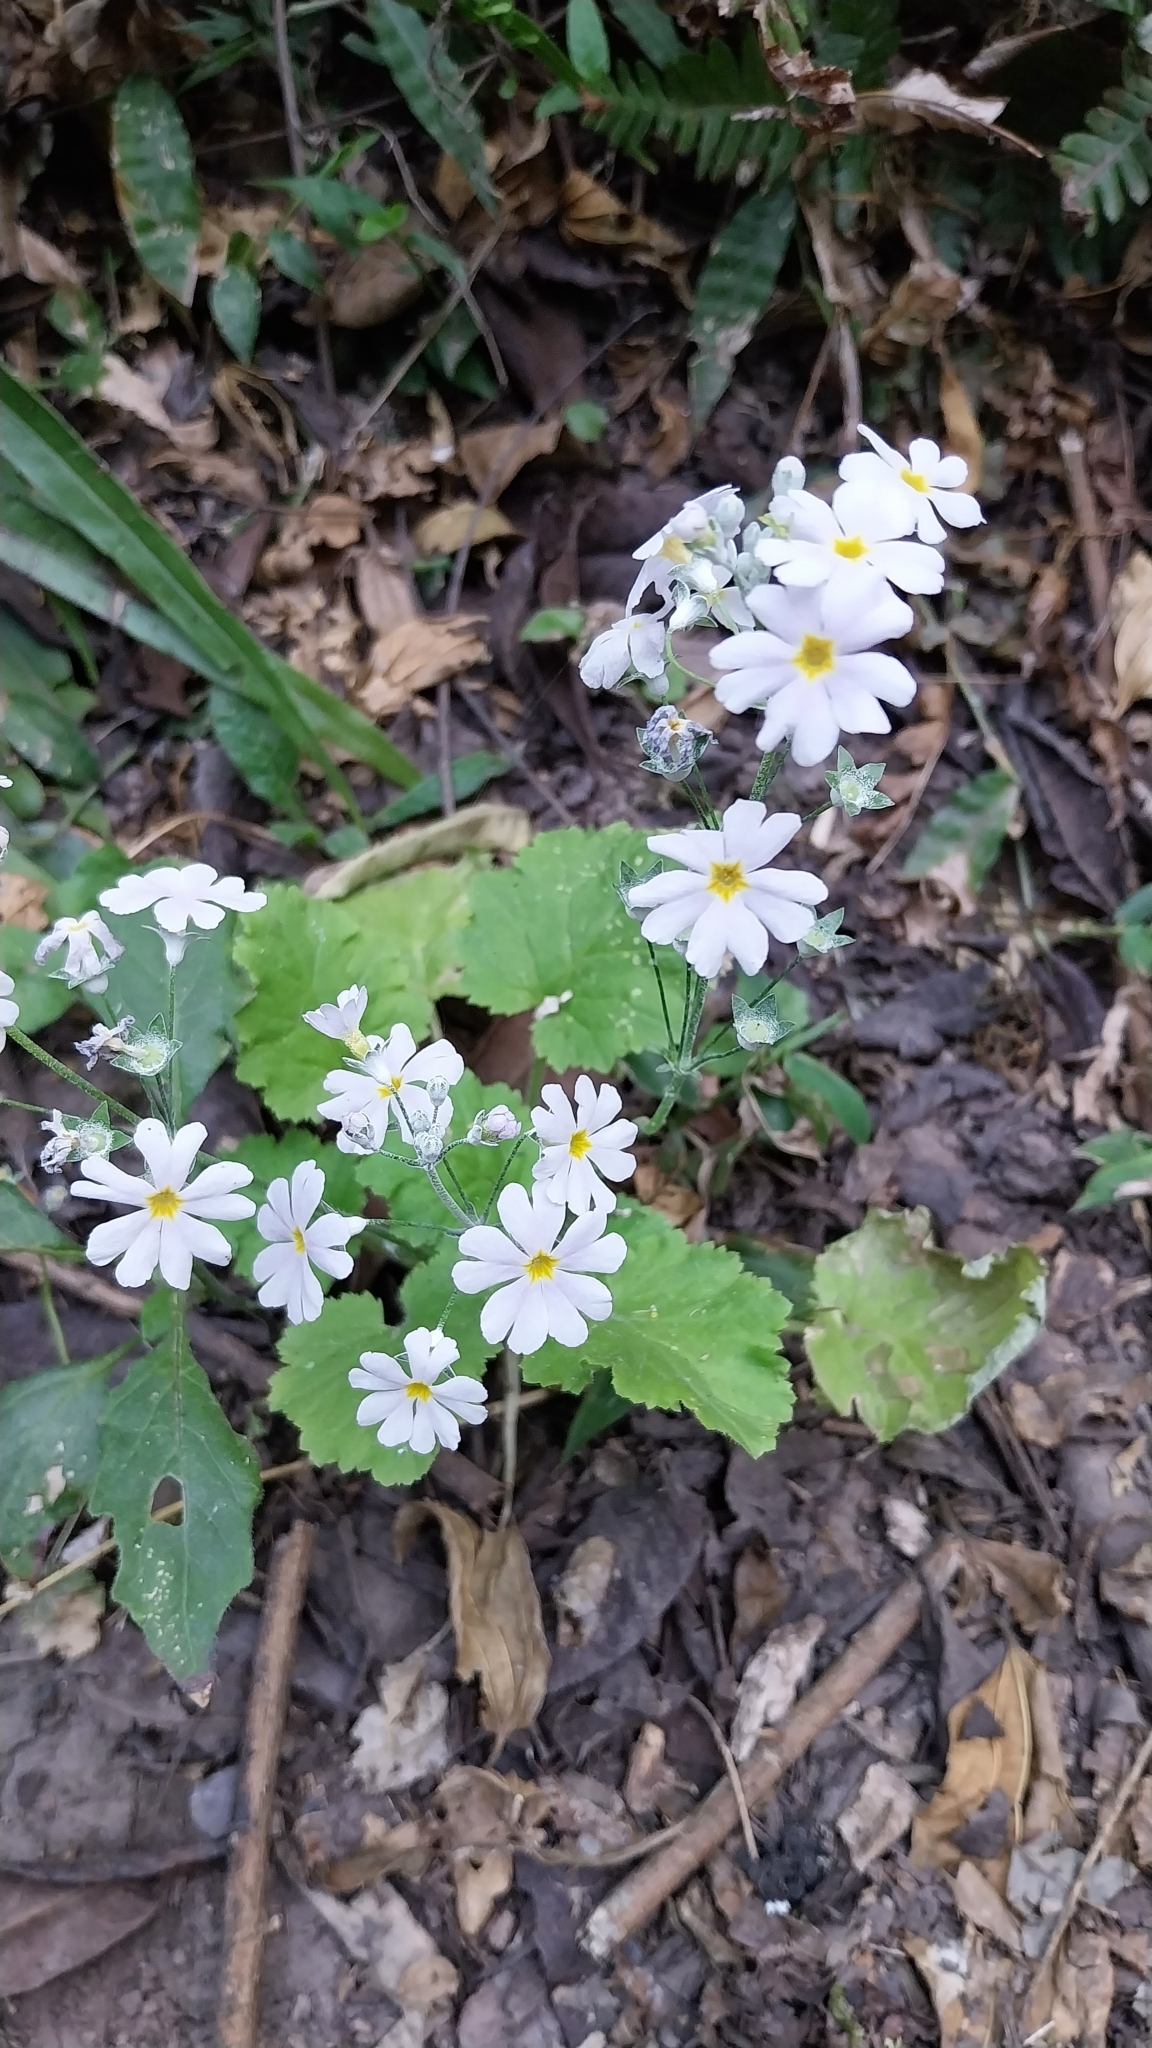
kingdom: Plantae
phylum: Tracheophyta
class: Magnoliopsida
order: Ericales
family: Primulaceae
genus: Primula
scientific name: Primula malacoides
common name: Baby primrose
